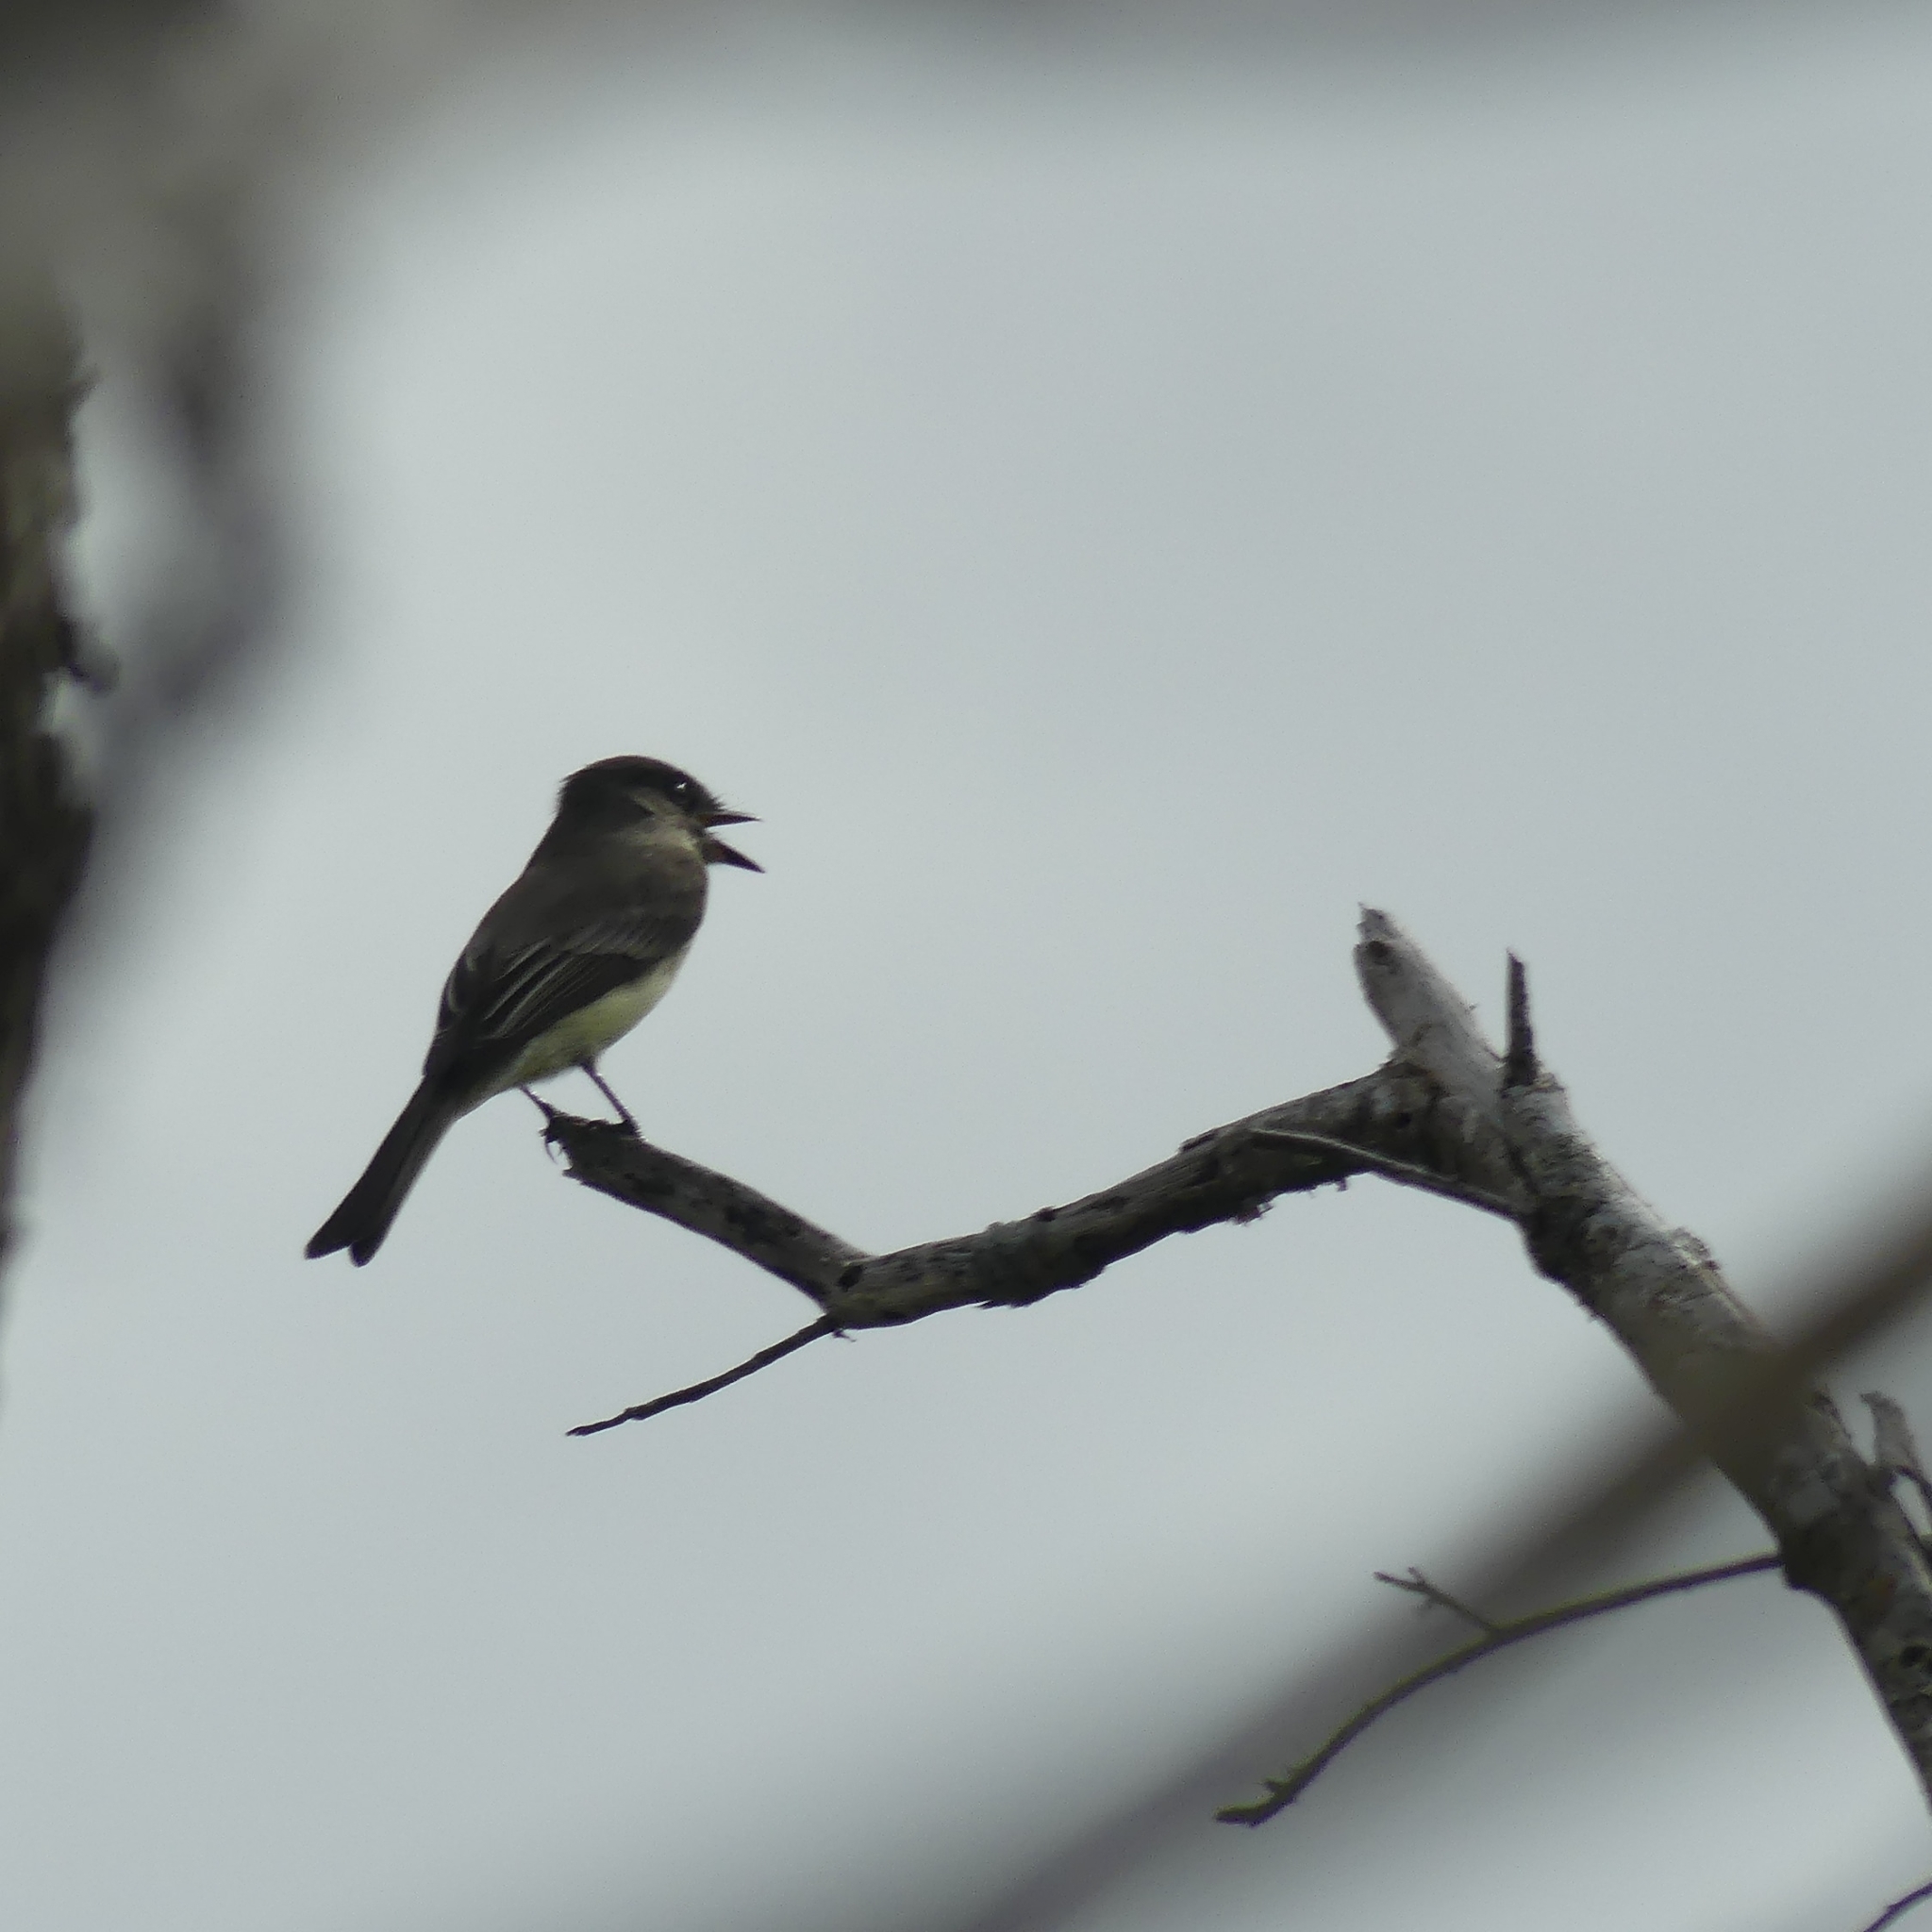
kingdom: Animalia
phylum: Chordata
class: Aves
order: Passeriformes
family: Tyrannidae
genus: Sayornis
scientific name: Sayornis phoebe
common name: Eastern phoebe
